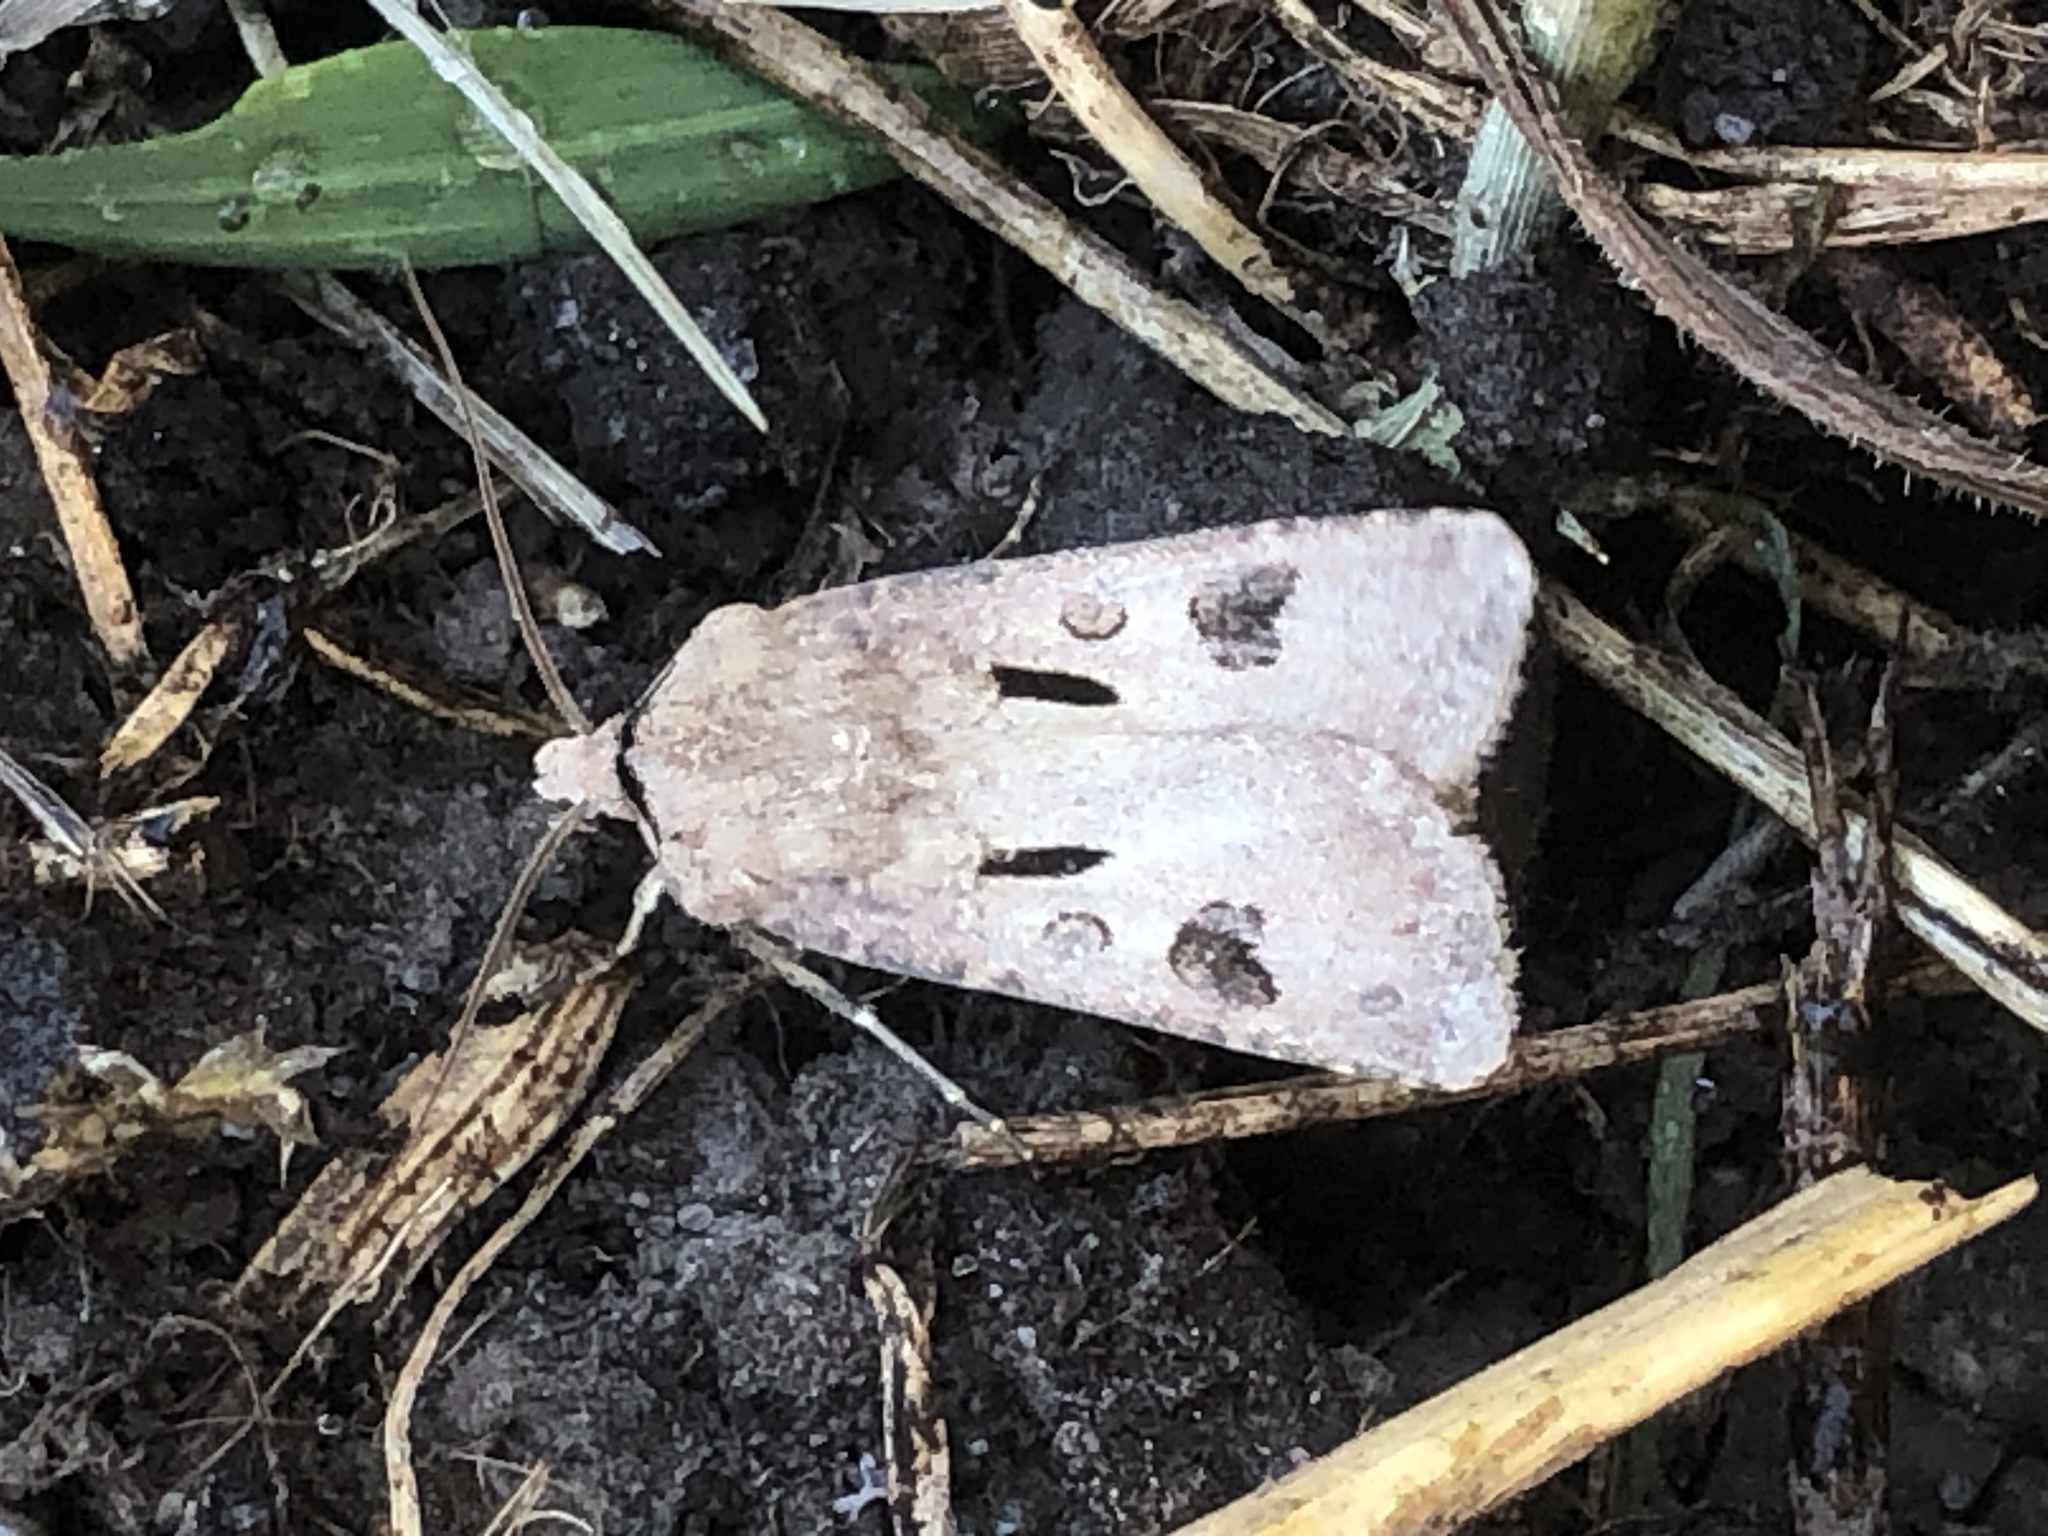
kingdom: Animalia
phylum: Arthropoda
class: Insecta
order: Lepidoptera
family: Noctuidae
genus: Agrotis
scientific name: Agrotis exclamationis
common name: Heart and dart
